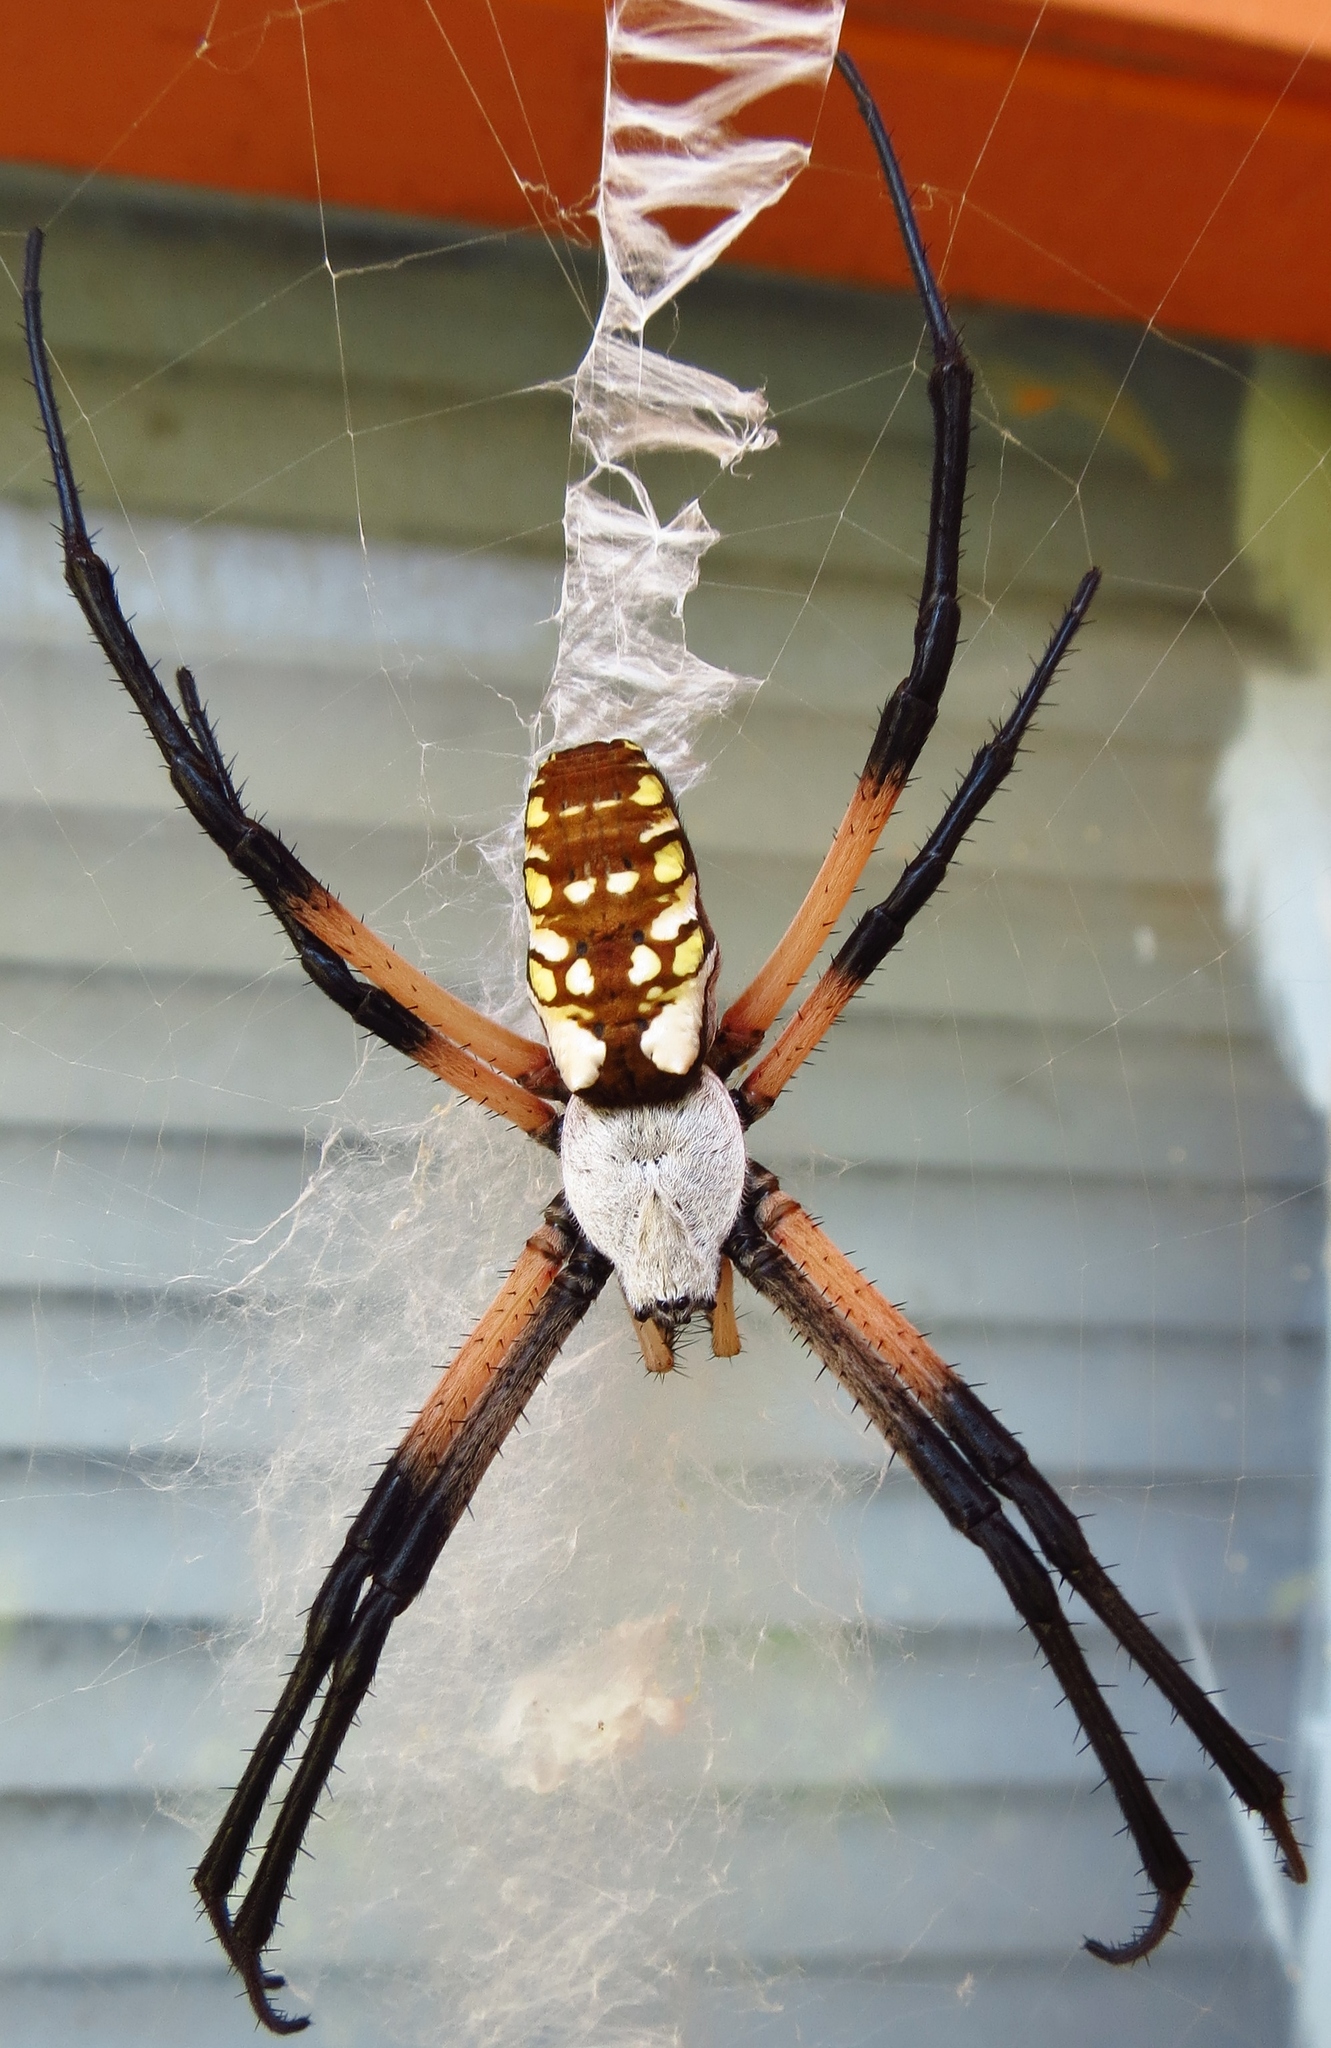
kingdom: Animalia
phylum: Arthropoda
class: Arachnida
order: Araneae
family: Araneidae
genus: Argiope
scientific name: Argiope aurantia
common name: Orb weavers
